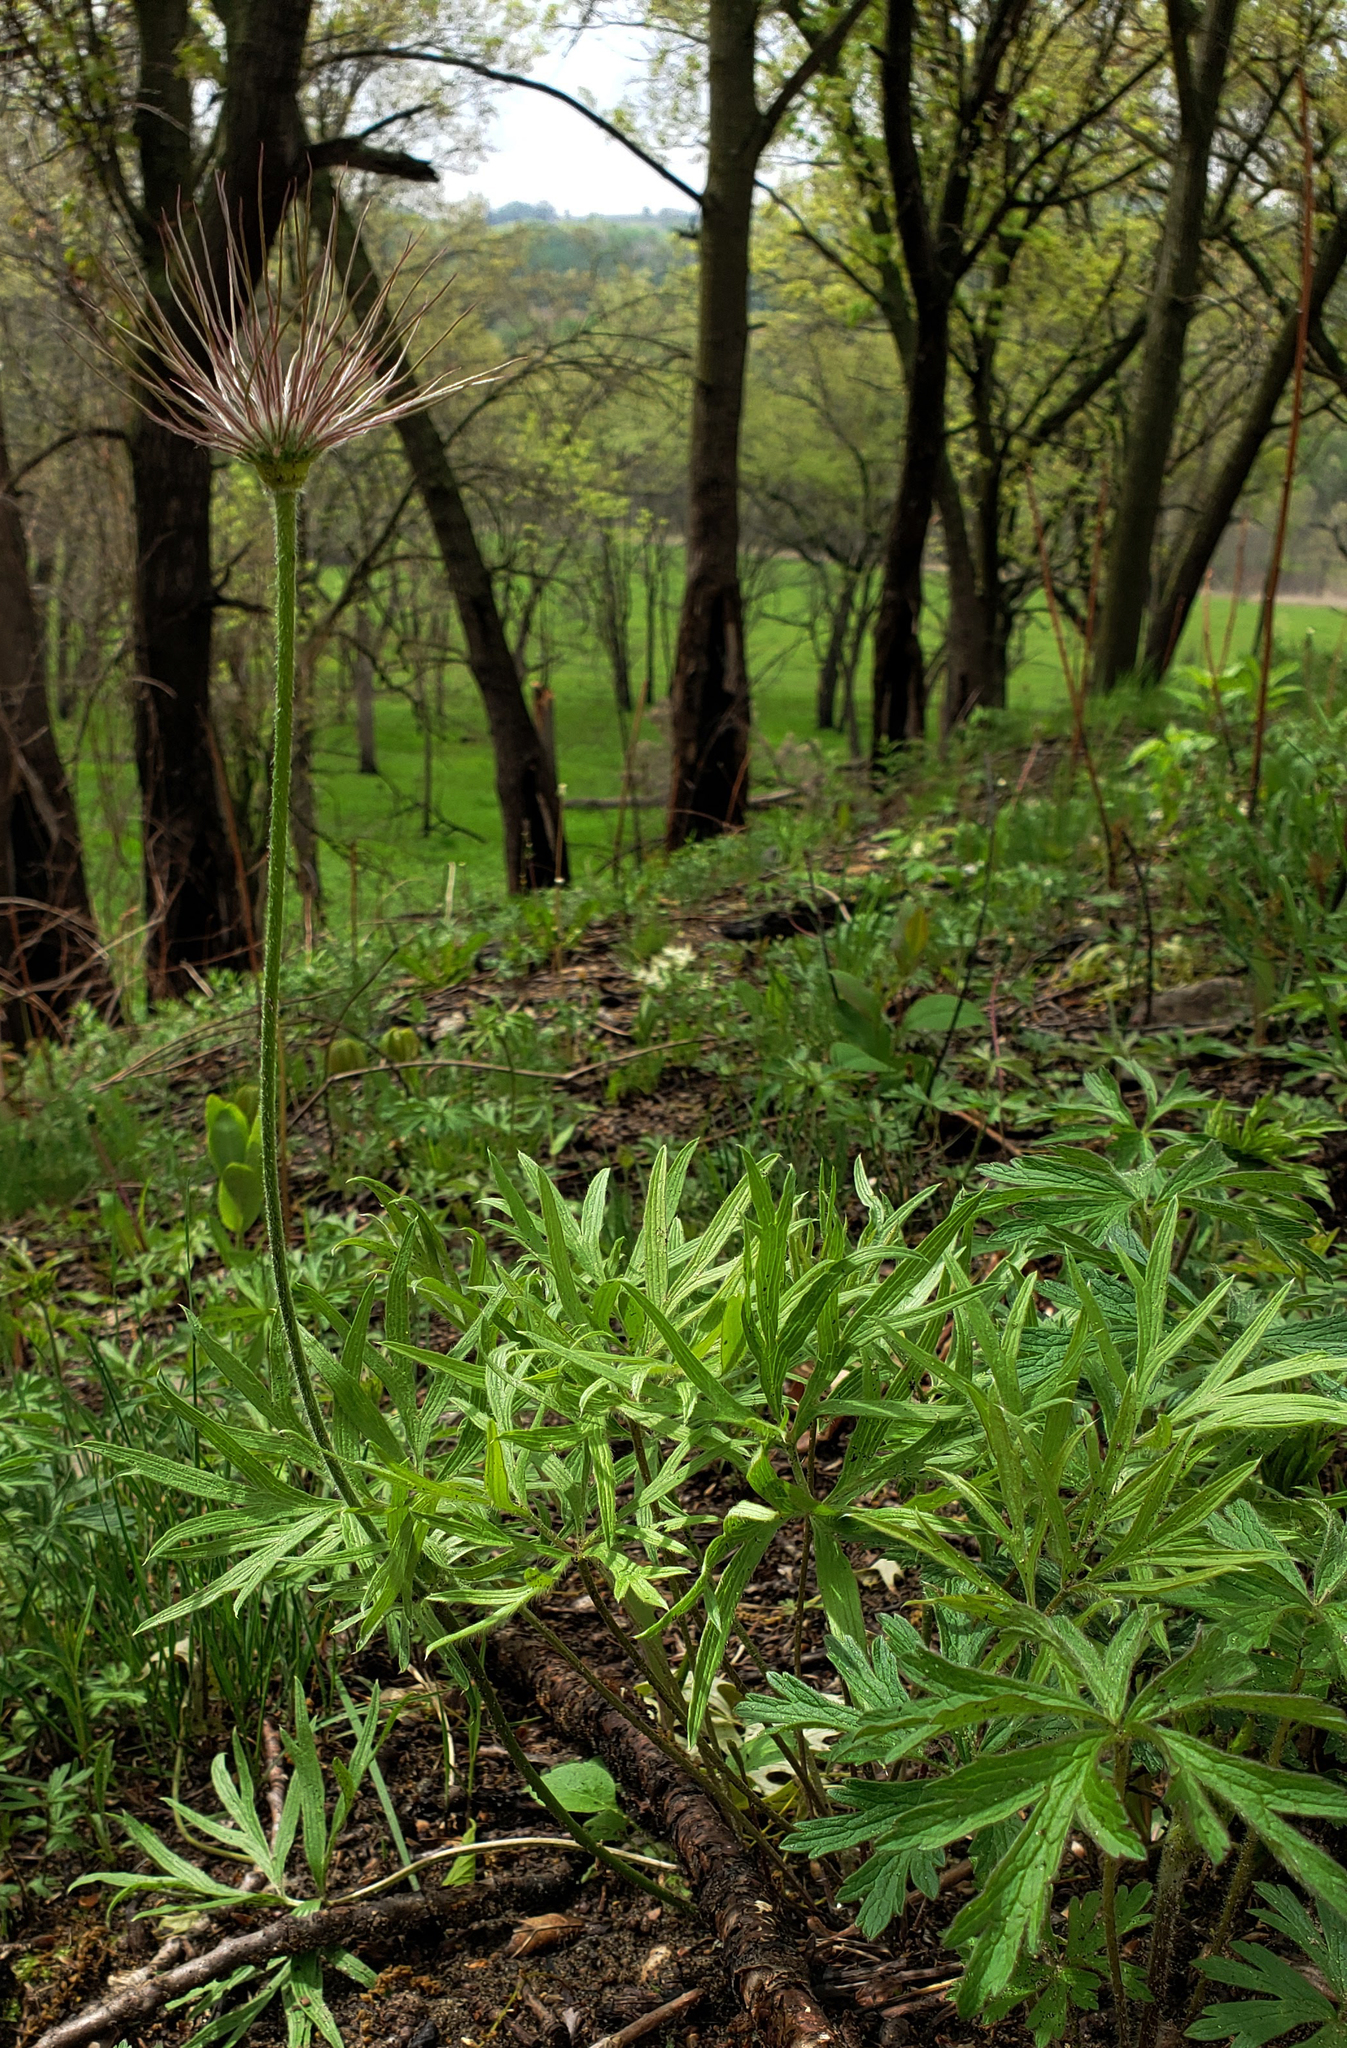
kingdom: Plantae
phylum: Tracheophyta
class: Magnoliopsida
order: Ranunculales
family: Ranunculaceae
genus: Pulsatilla
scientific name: Pulsatilla nuttalliana
